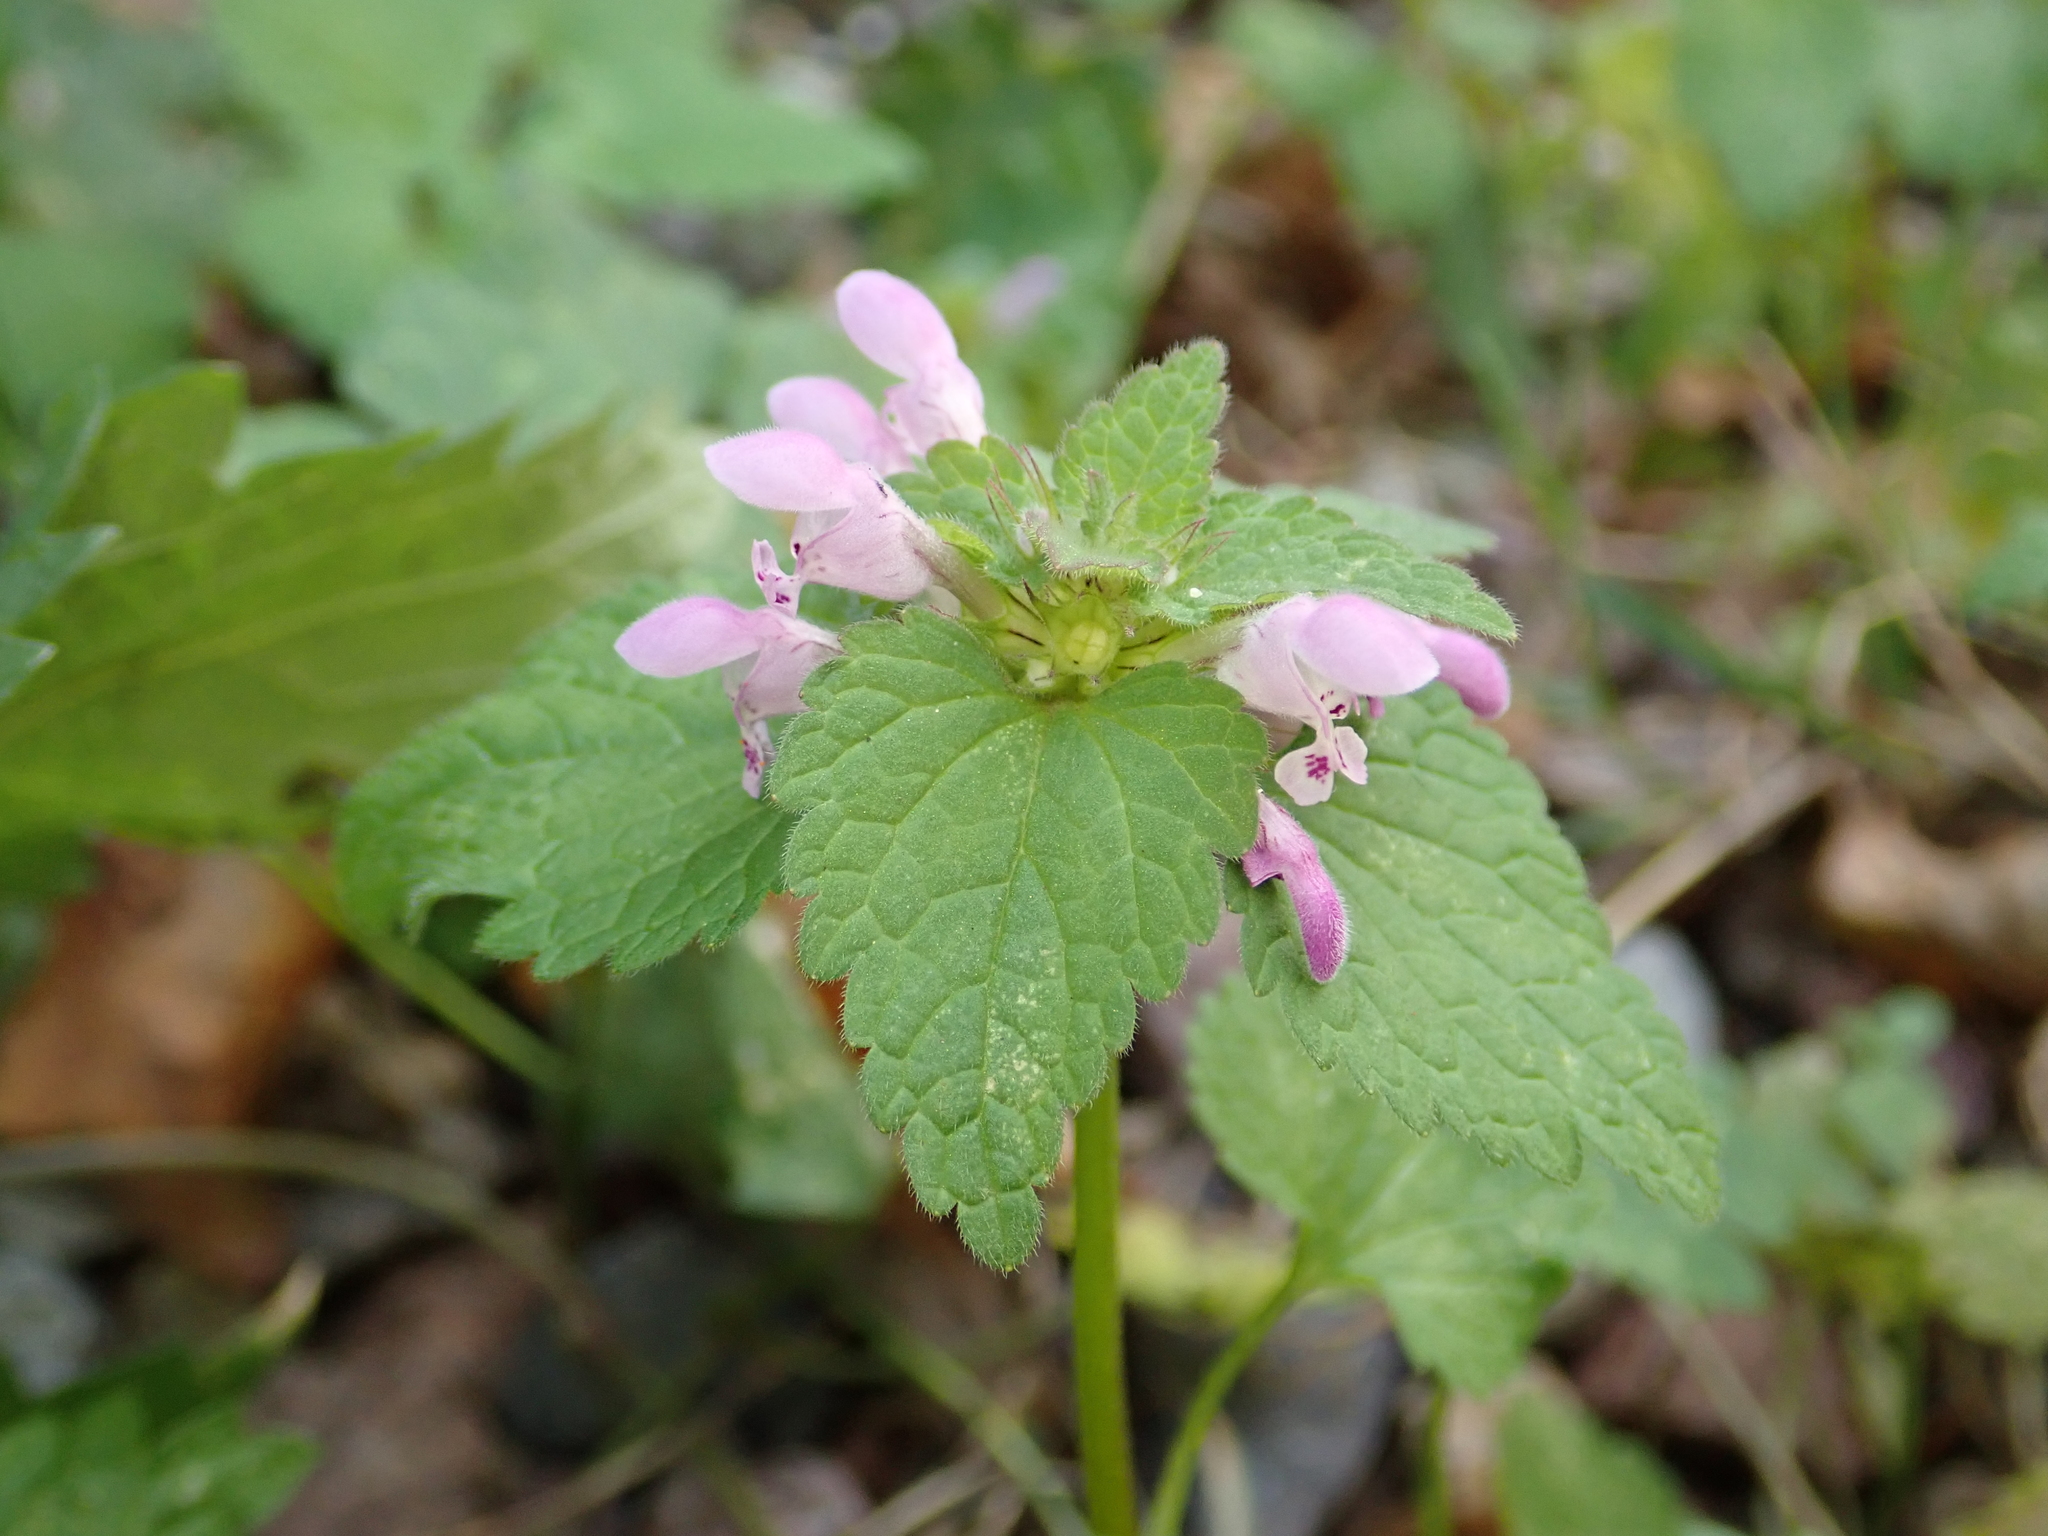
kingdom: Plantae
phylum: Tracheophyta
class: Magnoliopsida
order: Lamiales
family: Lamiaceae
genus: Lamium
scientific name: Lamium purpureum
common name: Red dead-nettle
